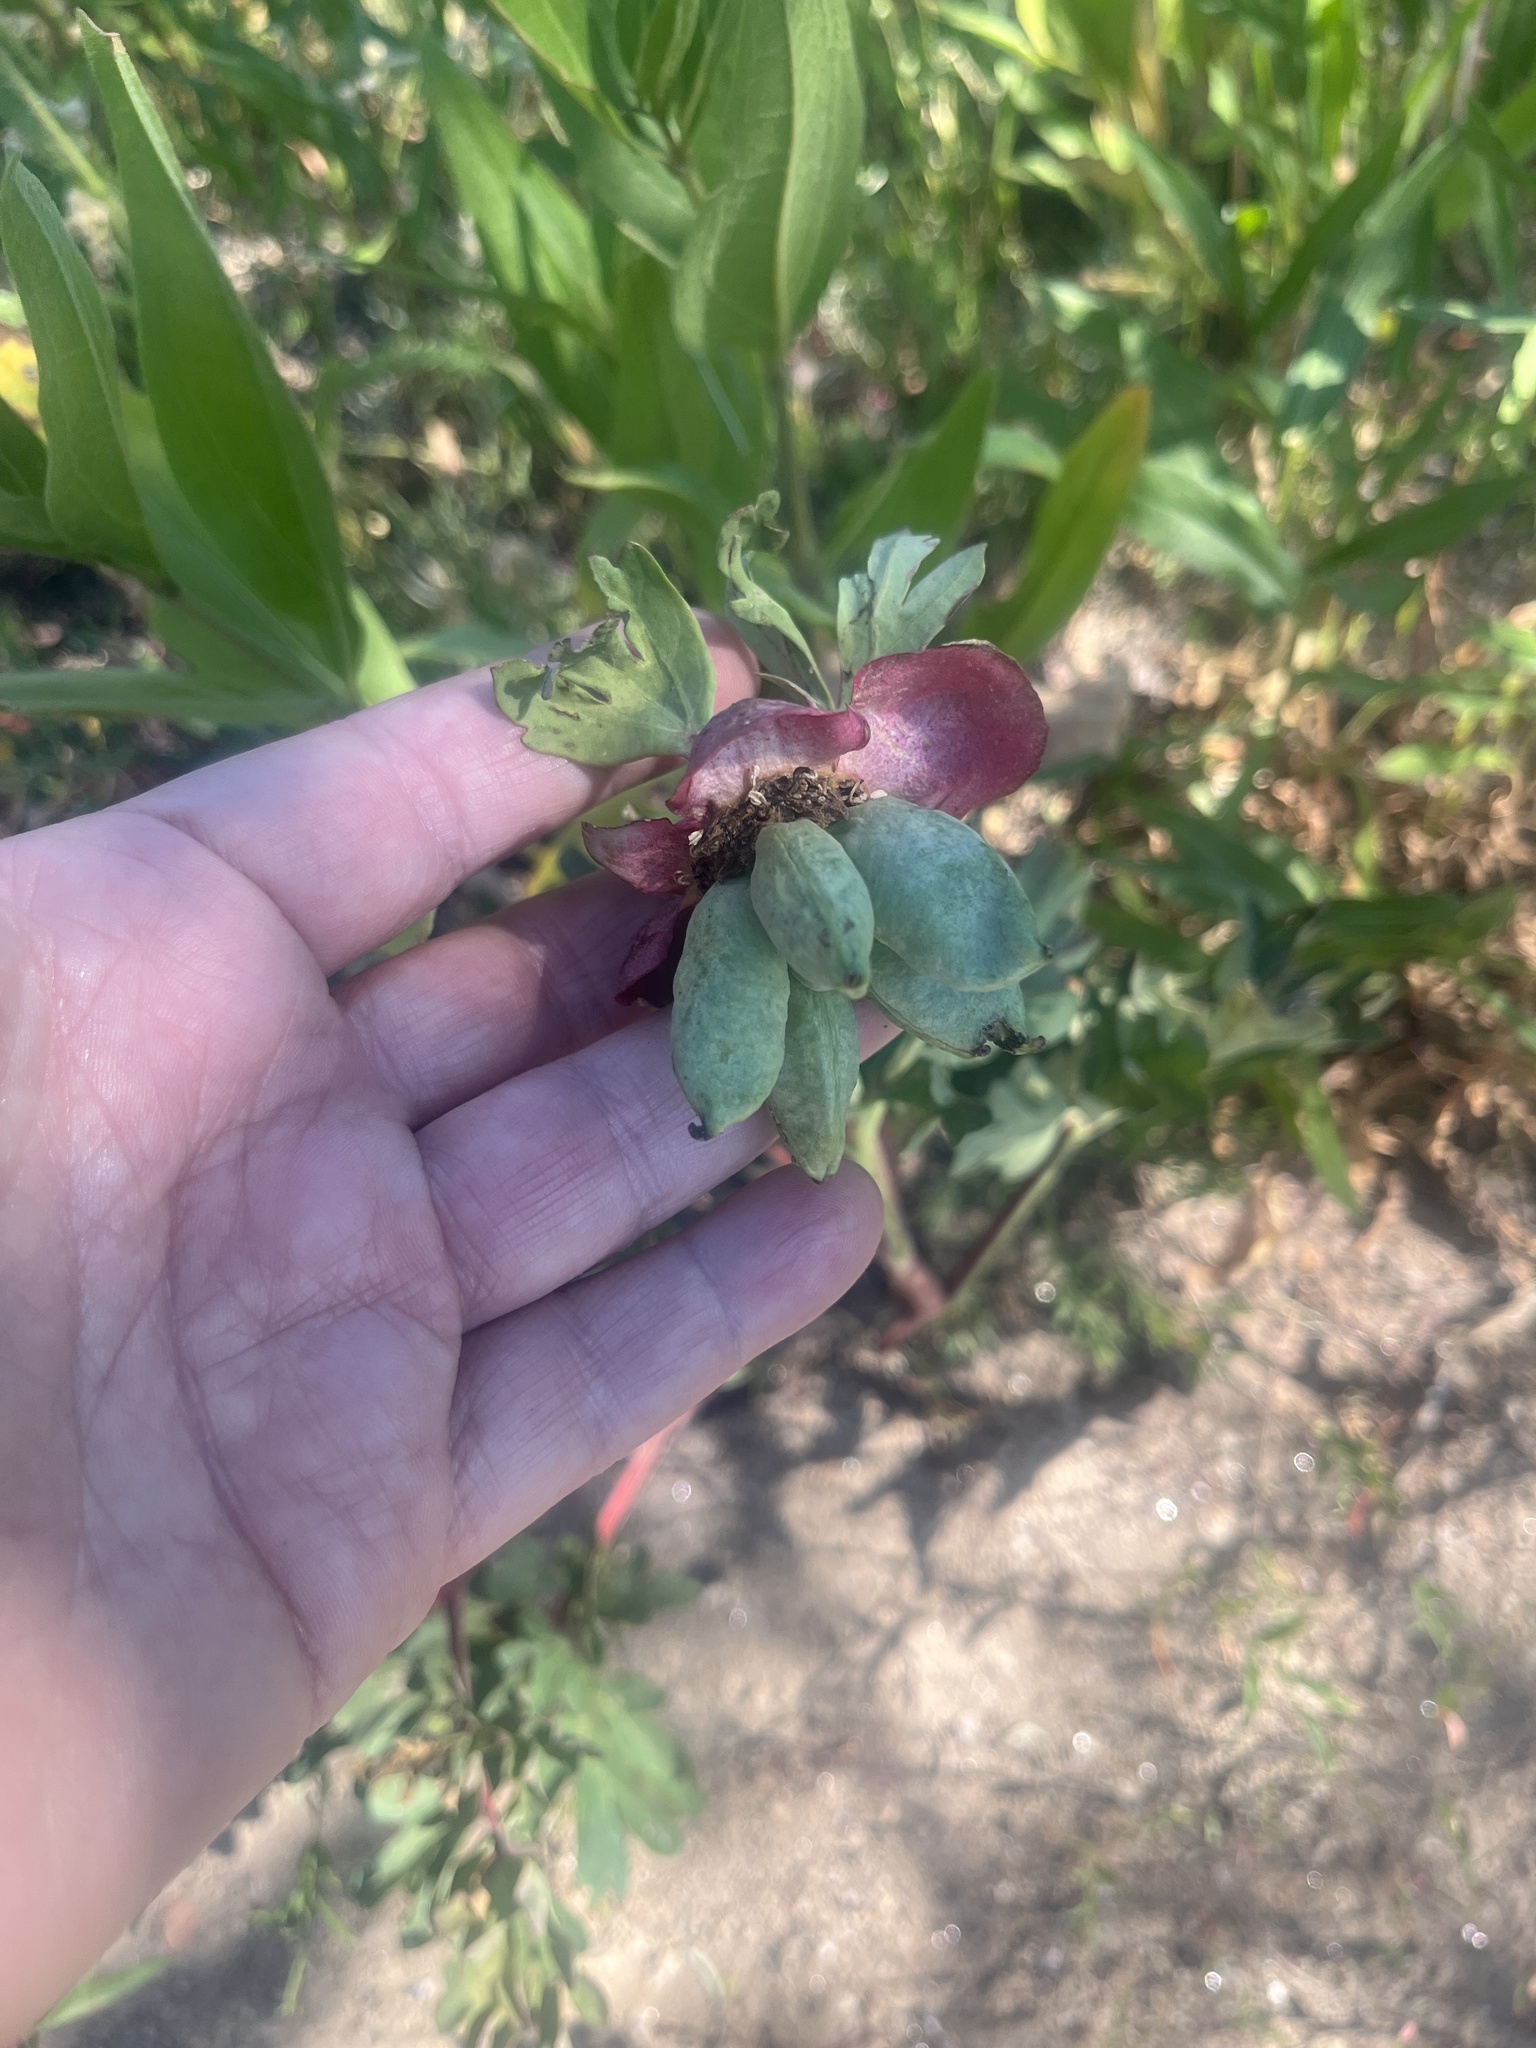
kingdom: Plantae
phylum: Tracheophyta
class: Magnoliopsida
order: Saxifragales
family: Paeoniaceae
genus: Paeonia
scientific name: Paeonia brownii
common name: Brown's peony
